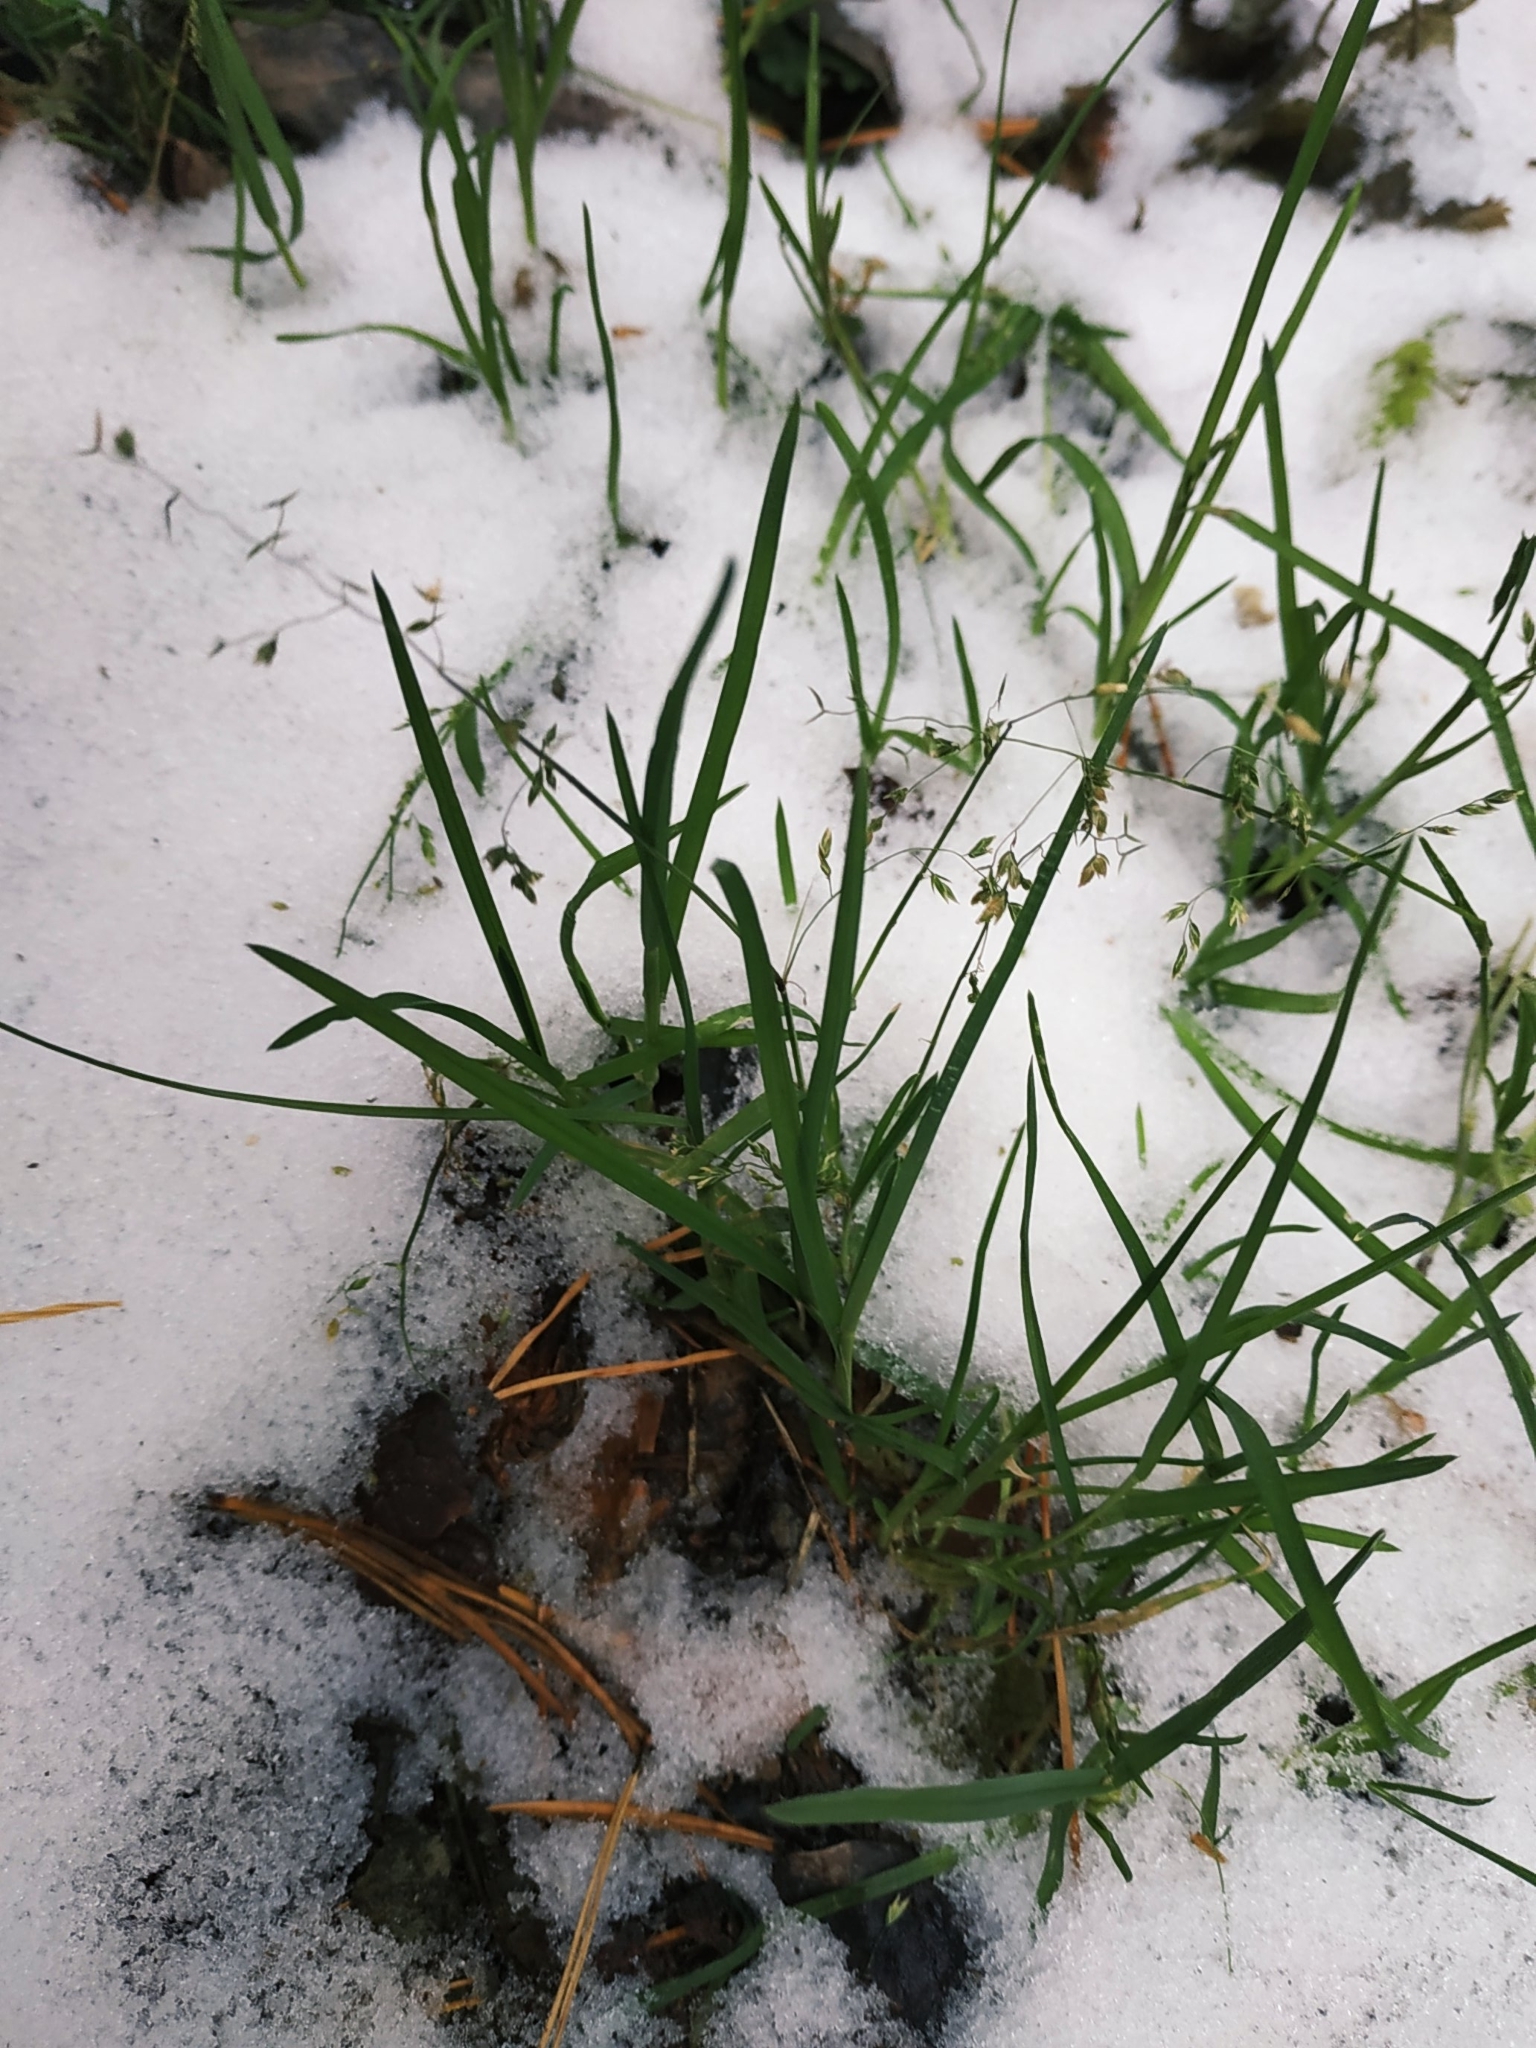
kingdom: Plantae
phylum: Tracheophyta
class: Liliopsida
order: Poales
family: Poaceae
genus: Poa
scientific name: Poa
